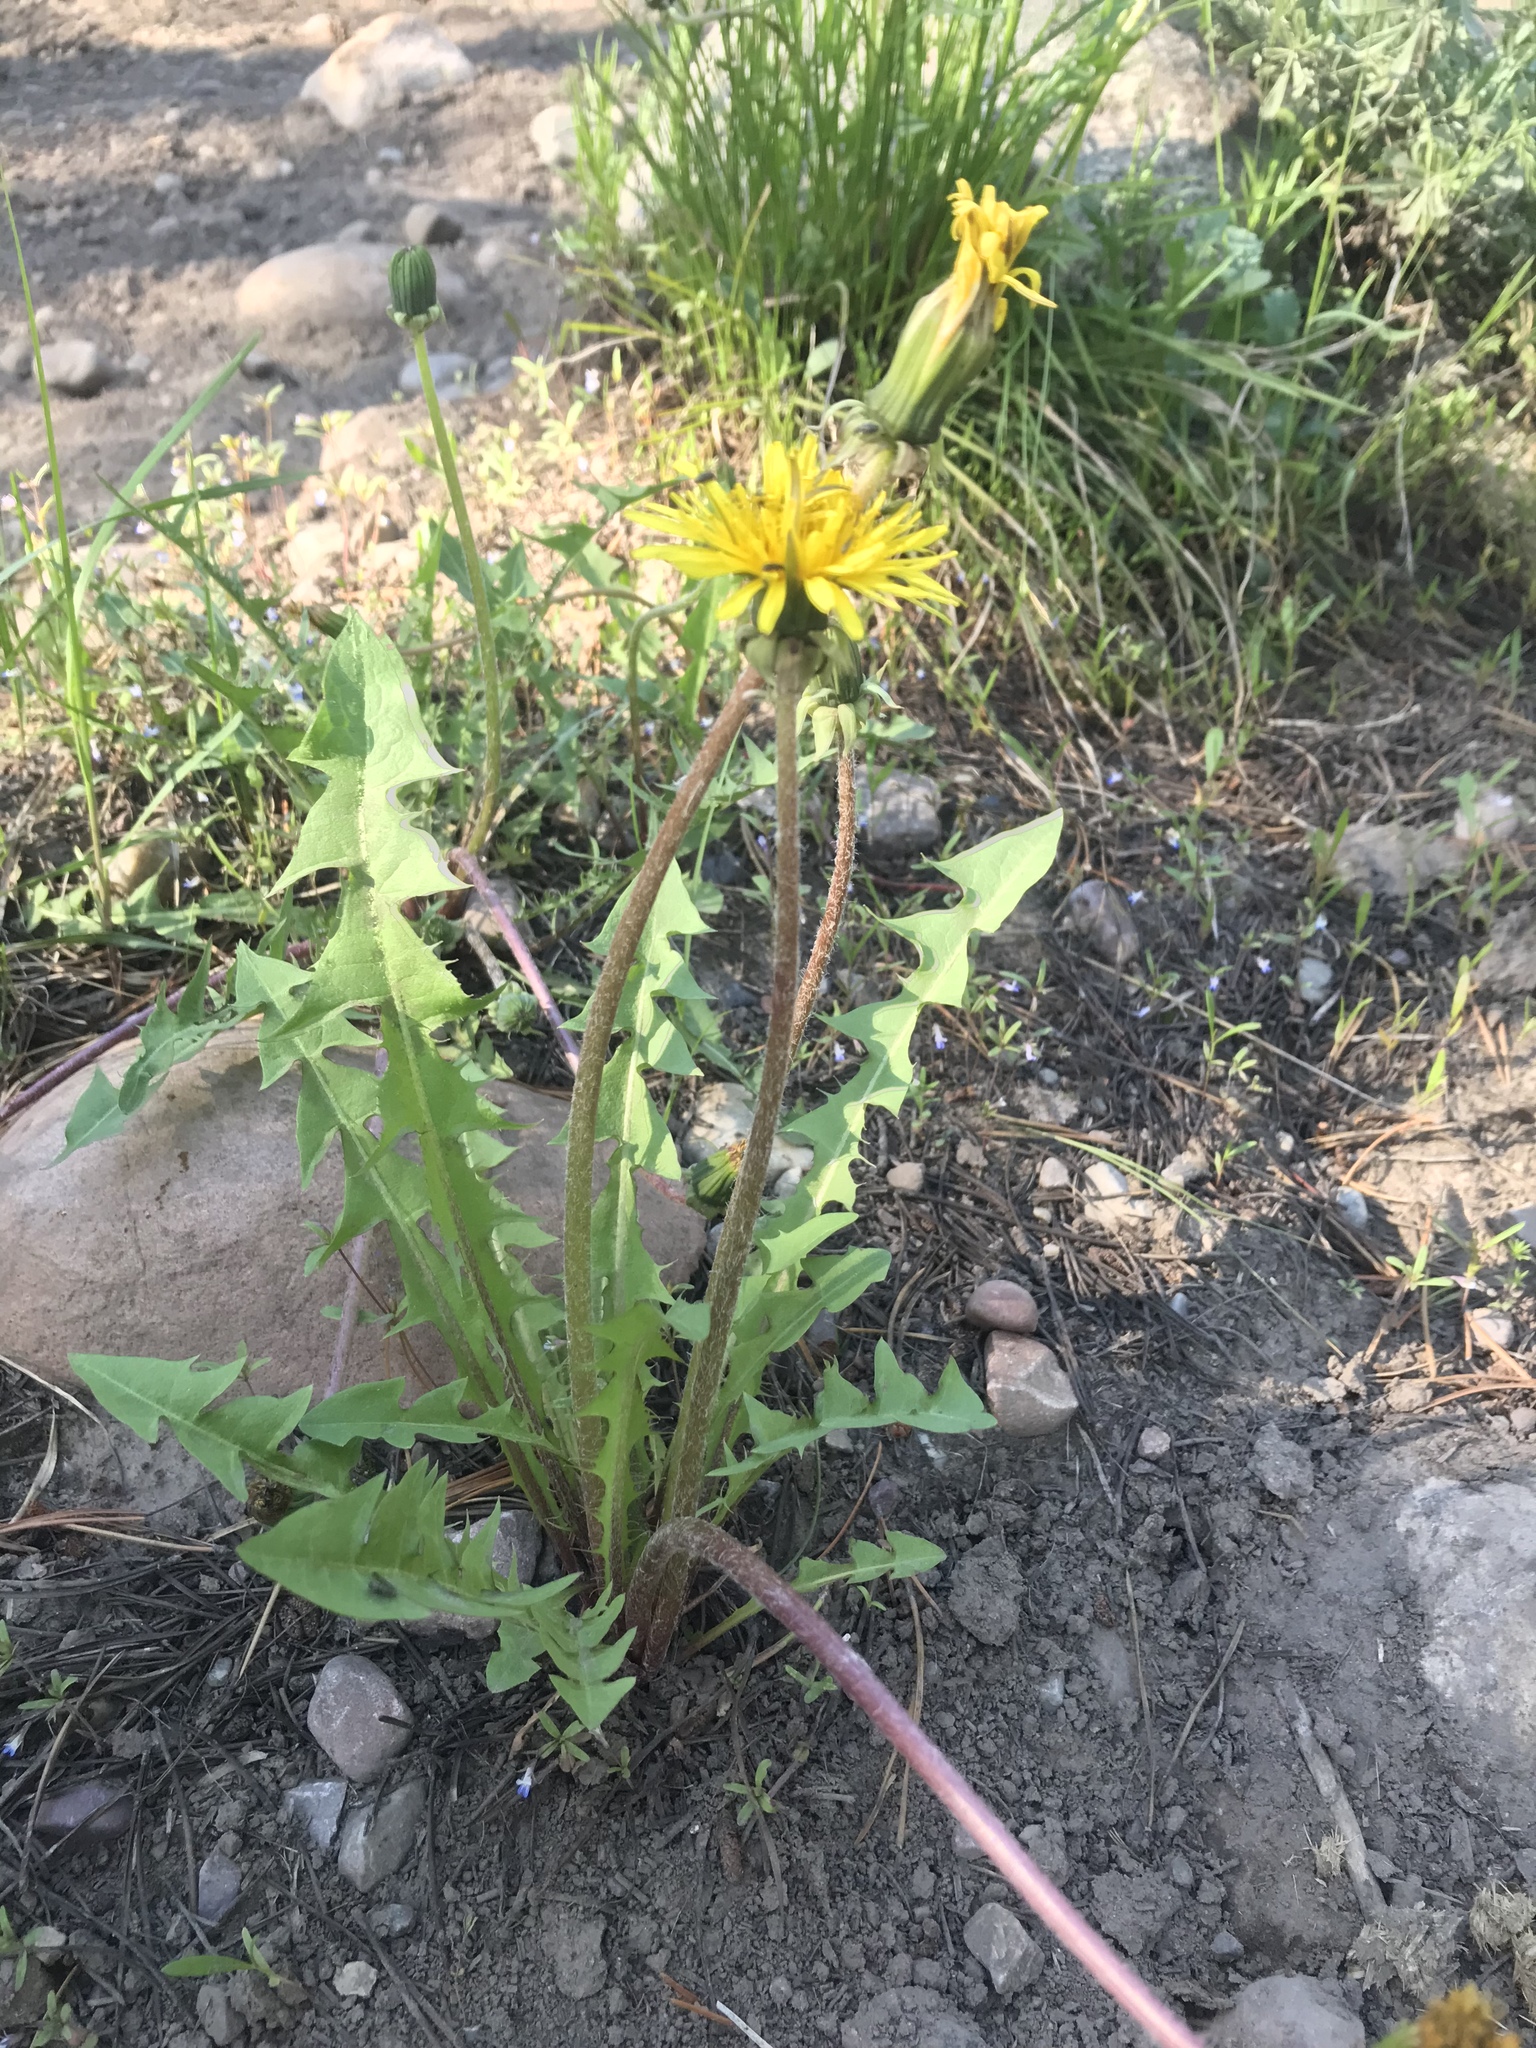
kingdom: Plantae
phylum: Tracheophyta
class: Magnoliopsida
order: Asterales
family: Asteraceae
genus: Taraxacum
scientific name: Taraxacum officinale
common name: Common dandelion
